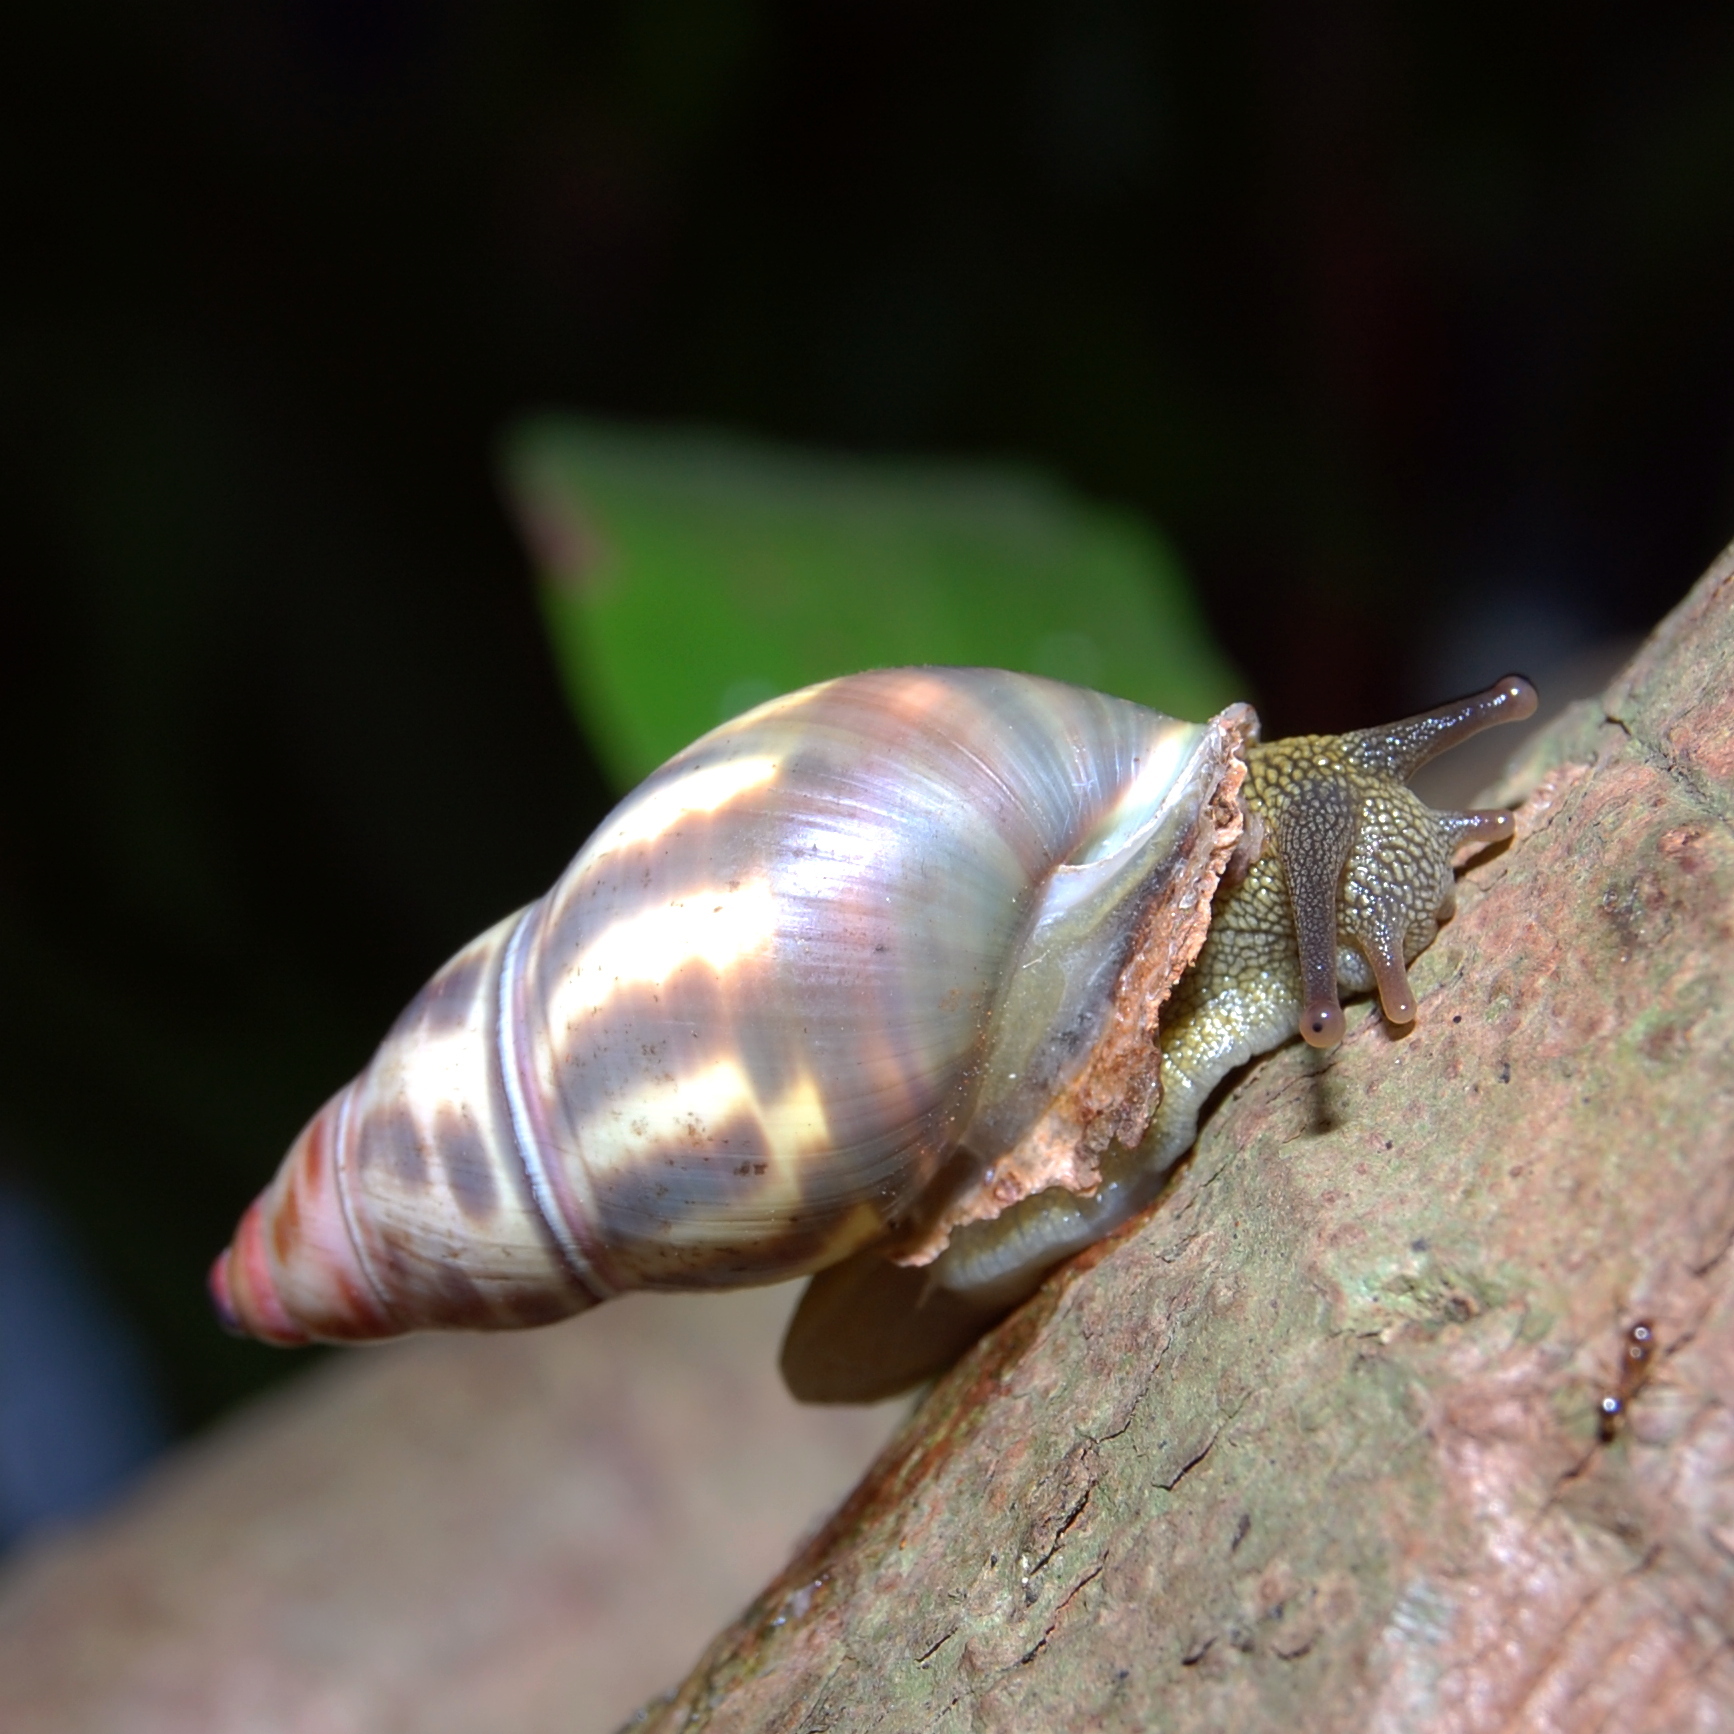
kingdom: Animalia
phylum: Mollusca
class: Gastropoda
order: Stylommatophora
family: Camaenidae
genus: Amphidromus
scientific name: Amphidromus contrarius
